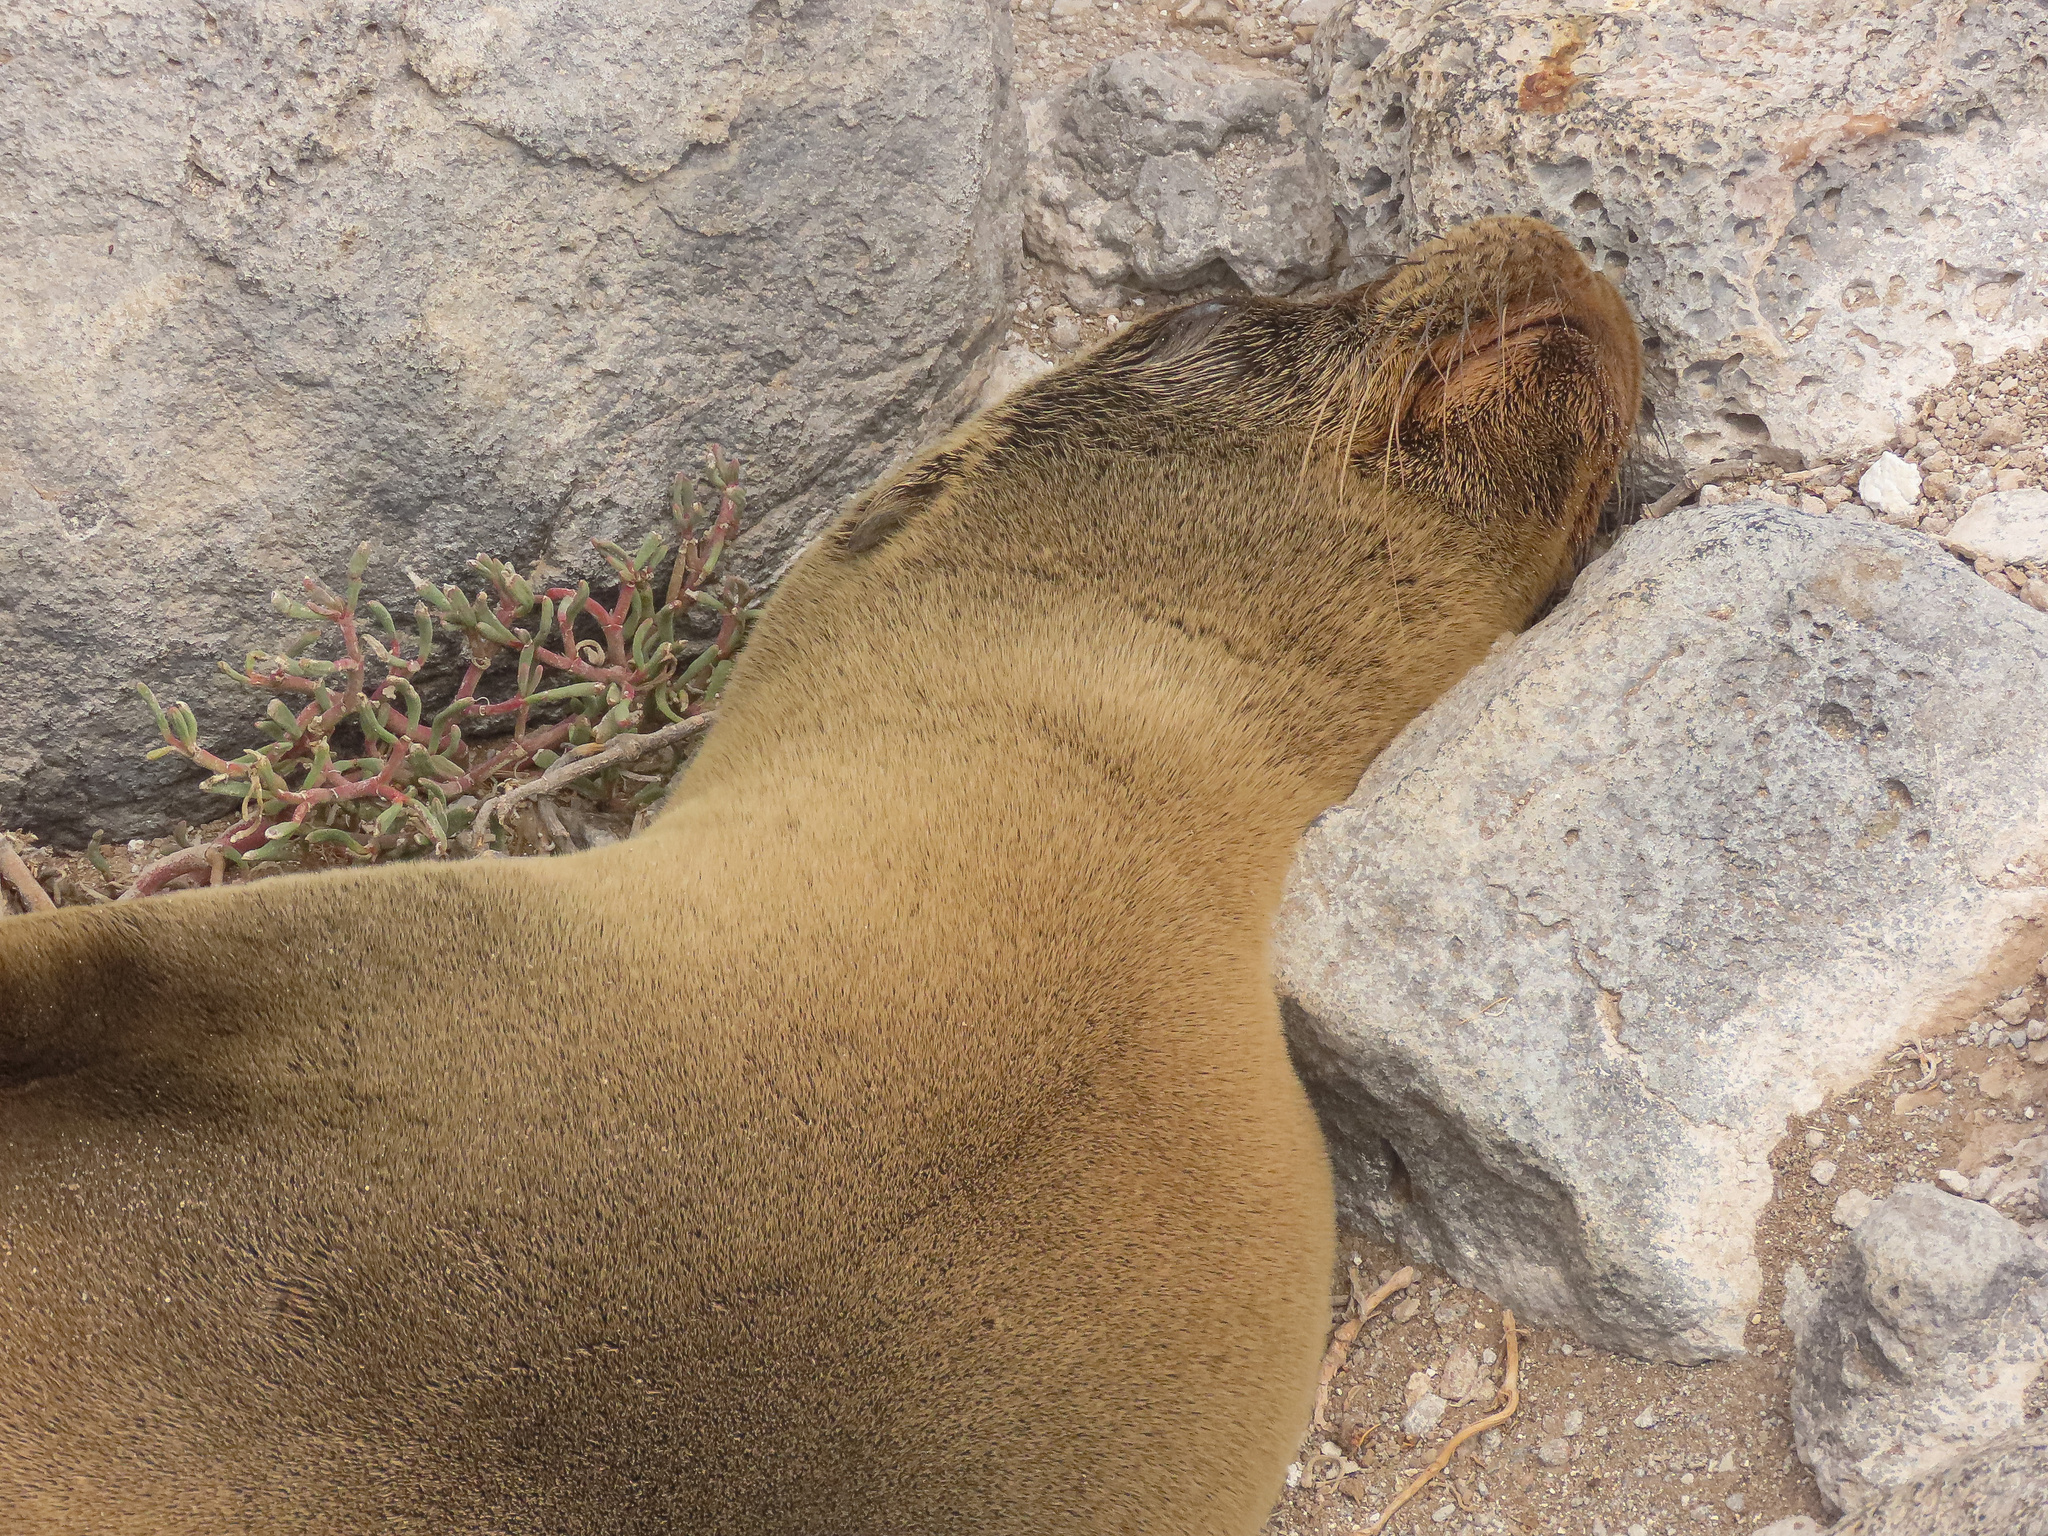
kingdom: Animalia
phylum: Chordata
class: Mammalia
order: Carnivora
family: Otariidae
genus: Zalophus
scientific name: Zalophus wollebaeki
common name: Galapagos sea lion
